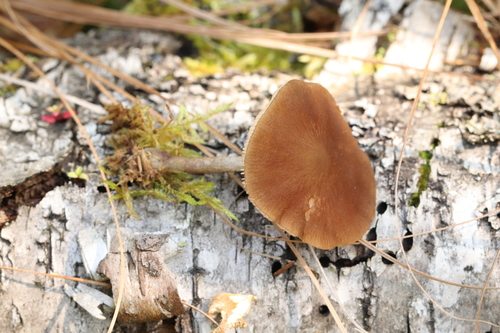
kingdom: Fungi
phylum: Basidiomycota
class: Agaricomycetes
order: Agaricales
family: Pluteaceae
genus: Pluteus
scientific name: Pluteus
